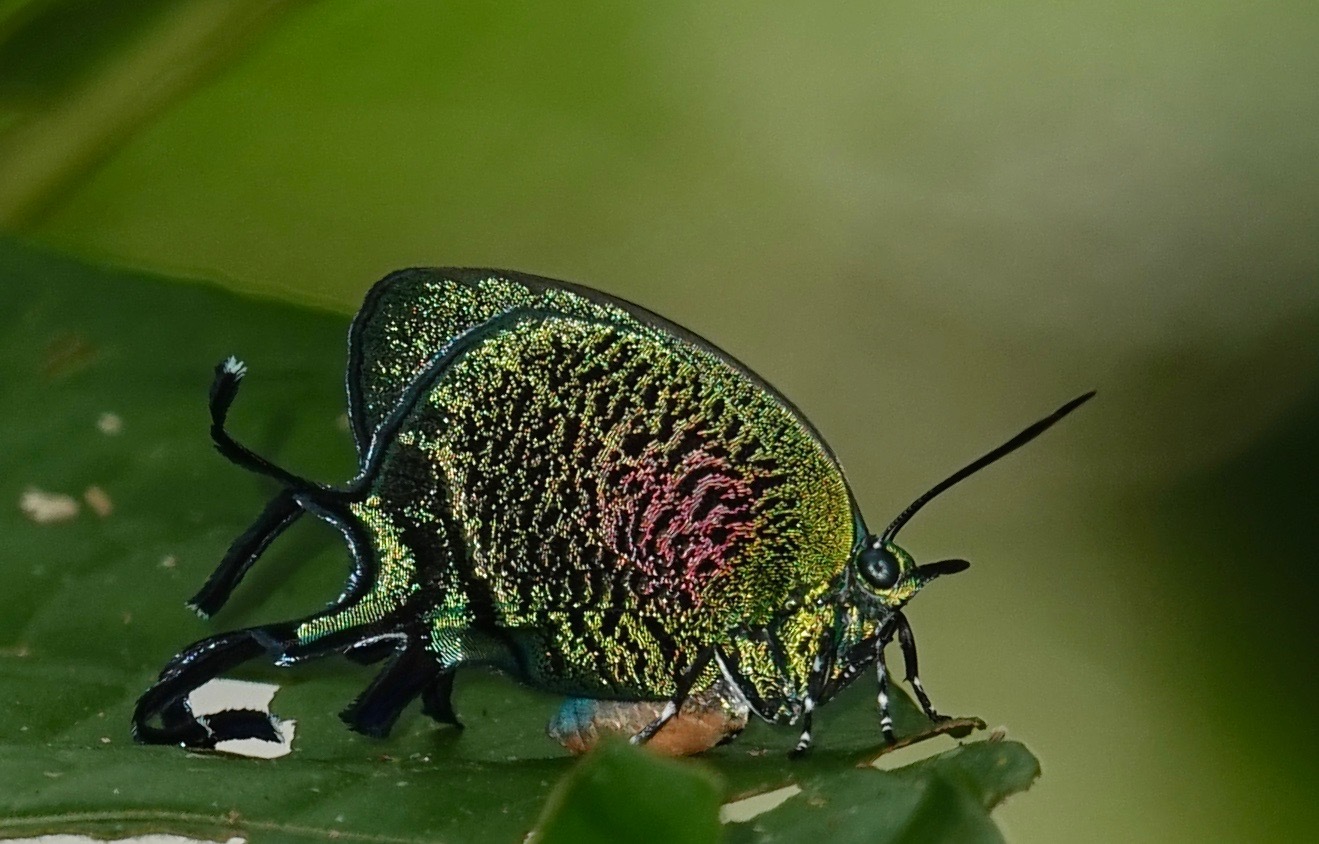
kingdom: Animalia
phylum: Arthropoda
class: Insecta
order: Lepidoptera
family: Lycaenidae
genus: Arcas
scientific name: Arcas imperialis
